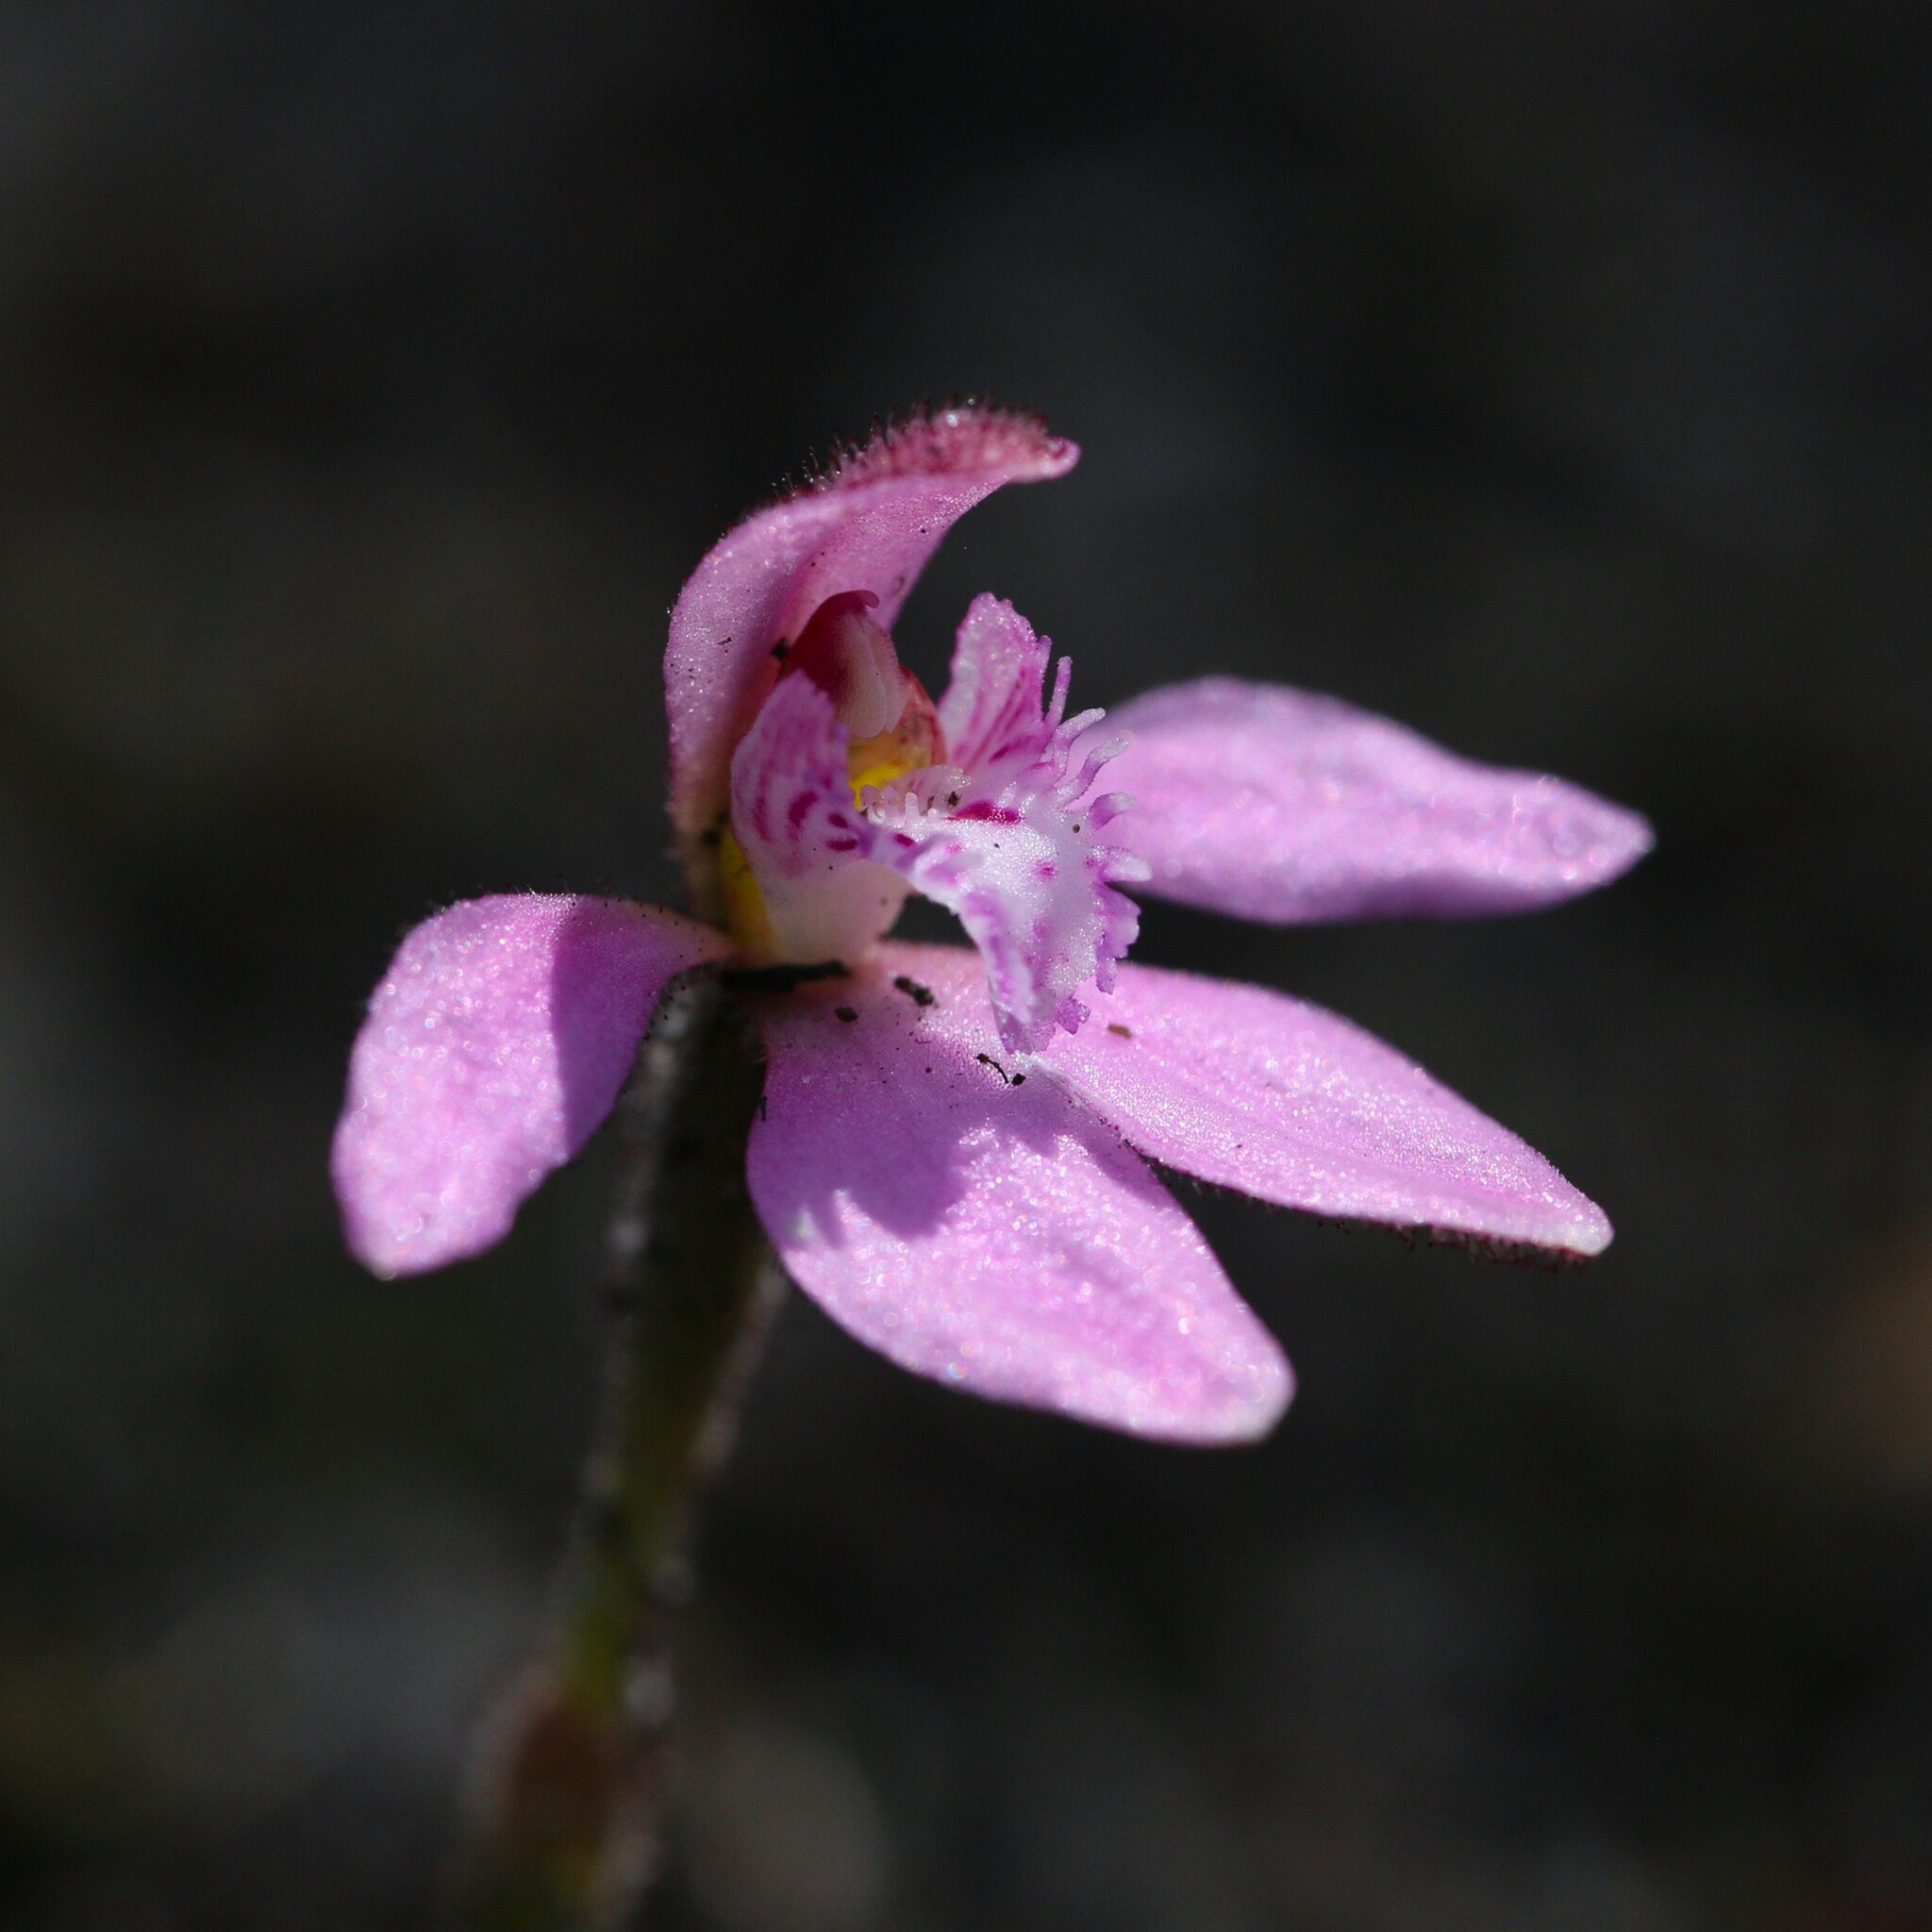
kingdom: Plantae
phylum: Tracheophyta
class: Liliopsida
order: Asparagales
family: Orchidaceae
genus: Caladenia
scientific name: Caladenia nana
